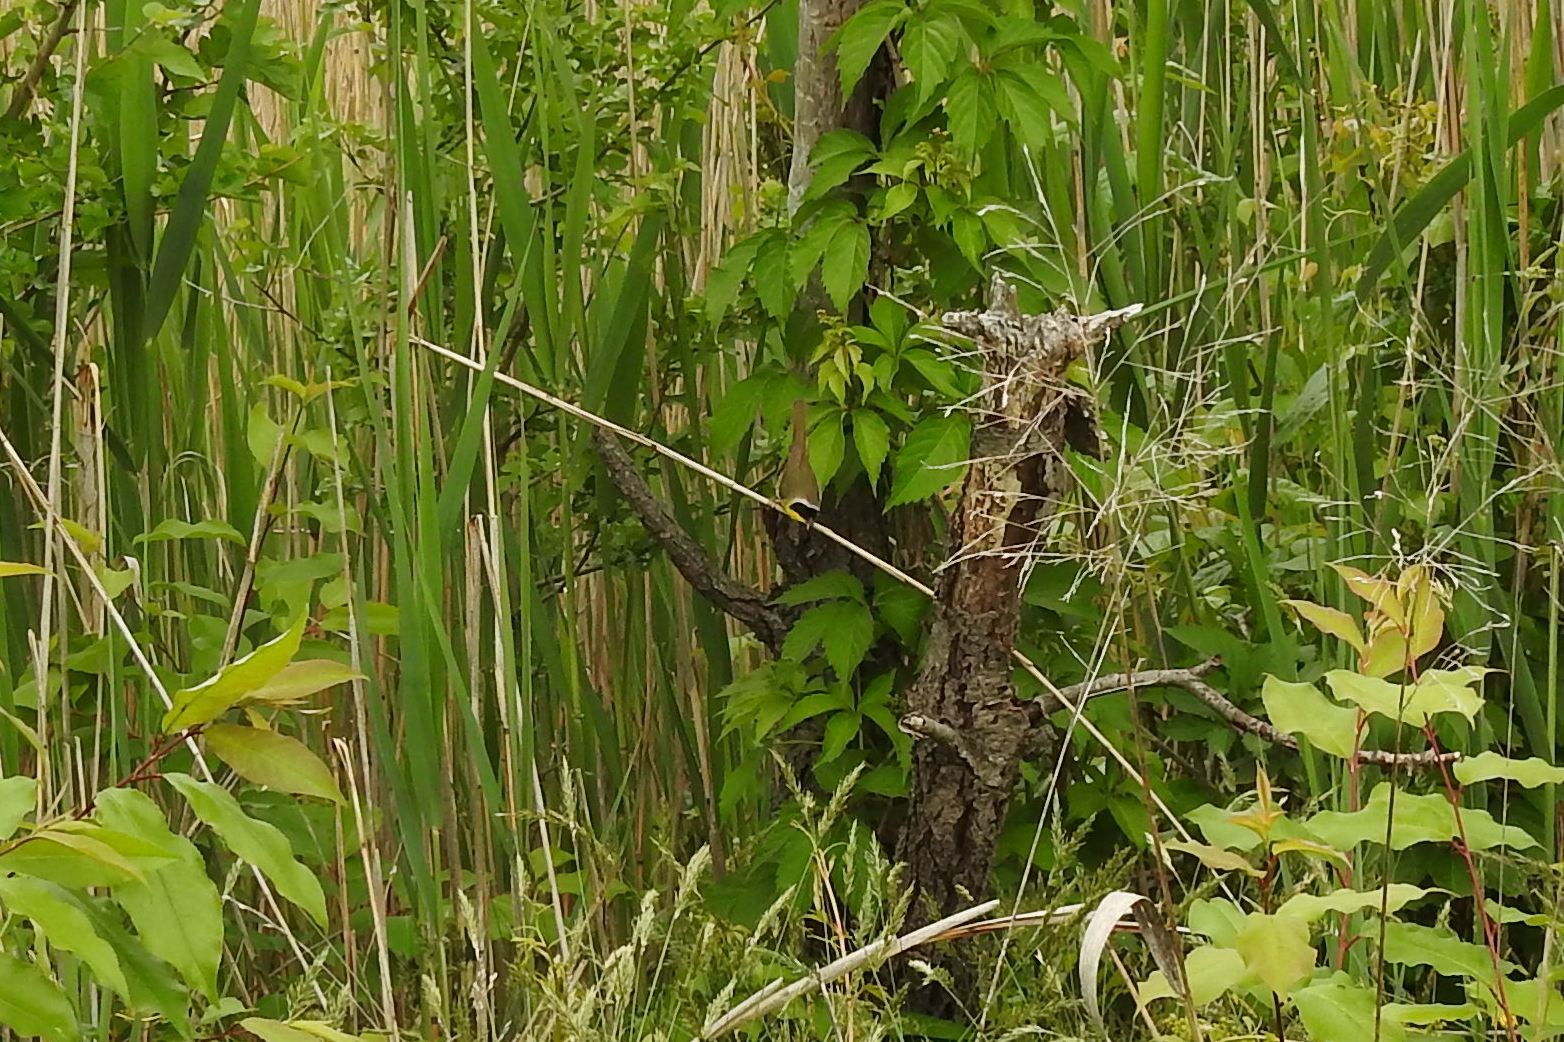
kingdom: Animalia
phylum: Chordata
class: Aves
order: Passeriformes
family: Parulidae
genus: Geothlypis
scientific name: Geothlypis trichas
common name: Common yellowthroat
